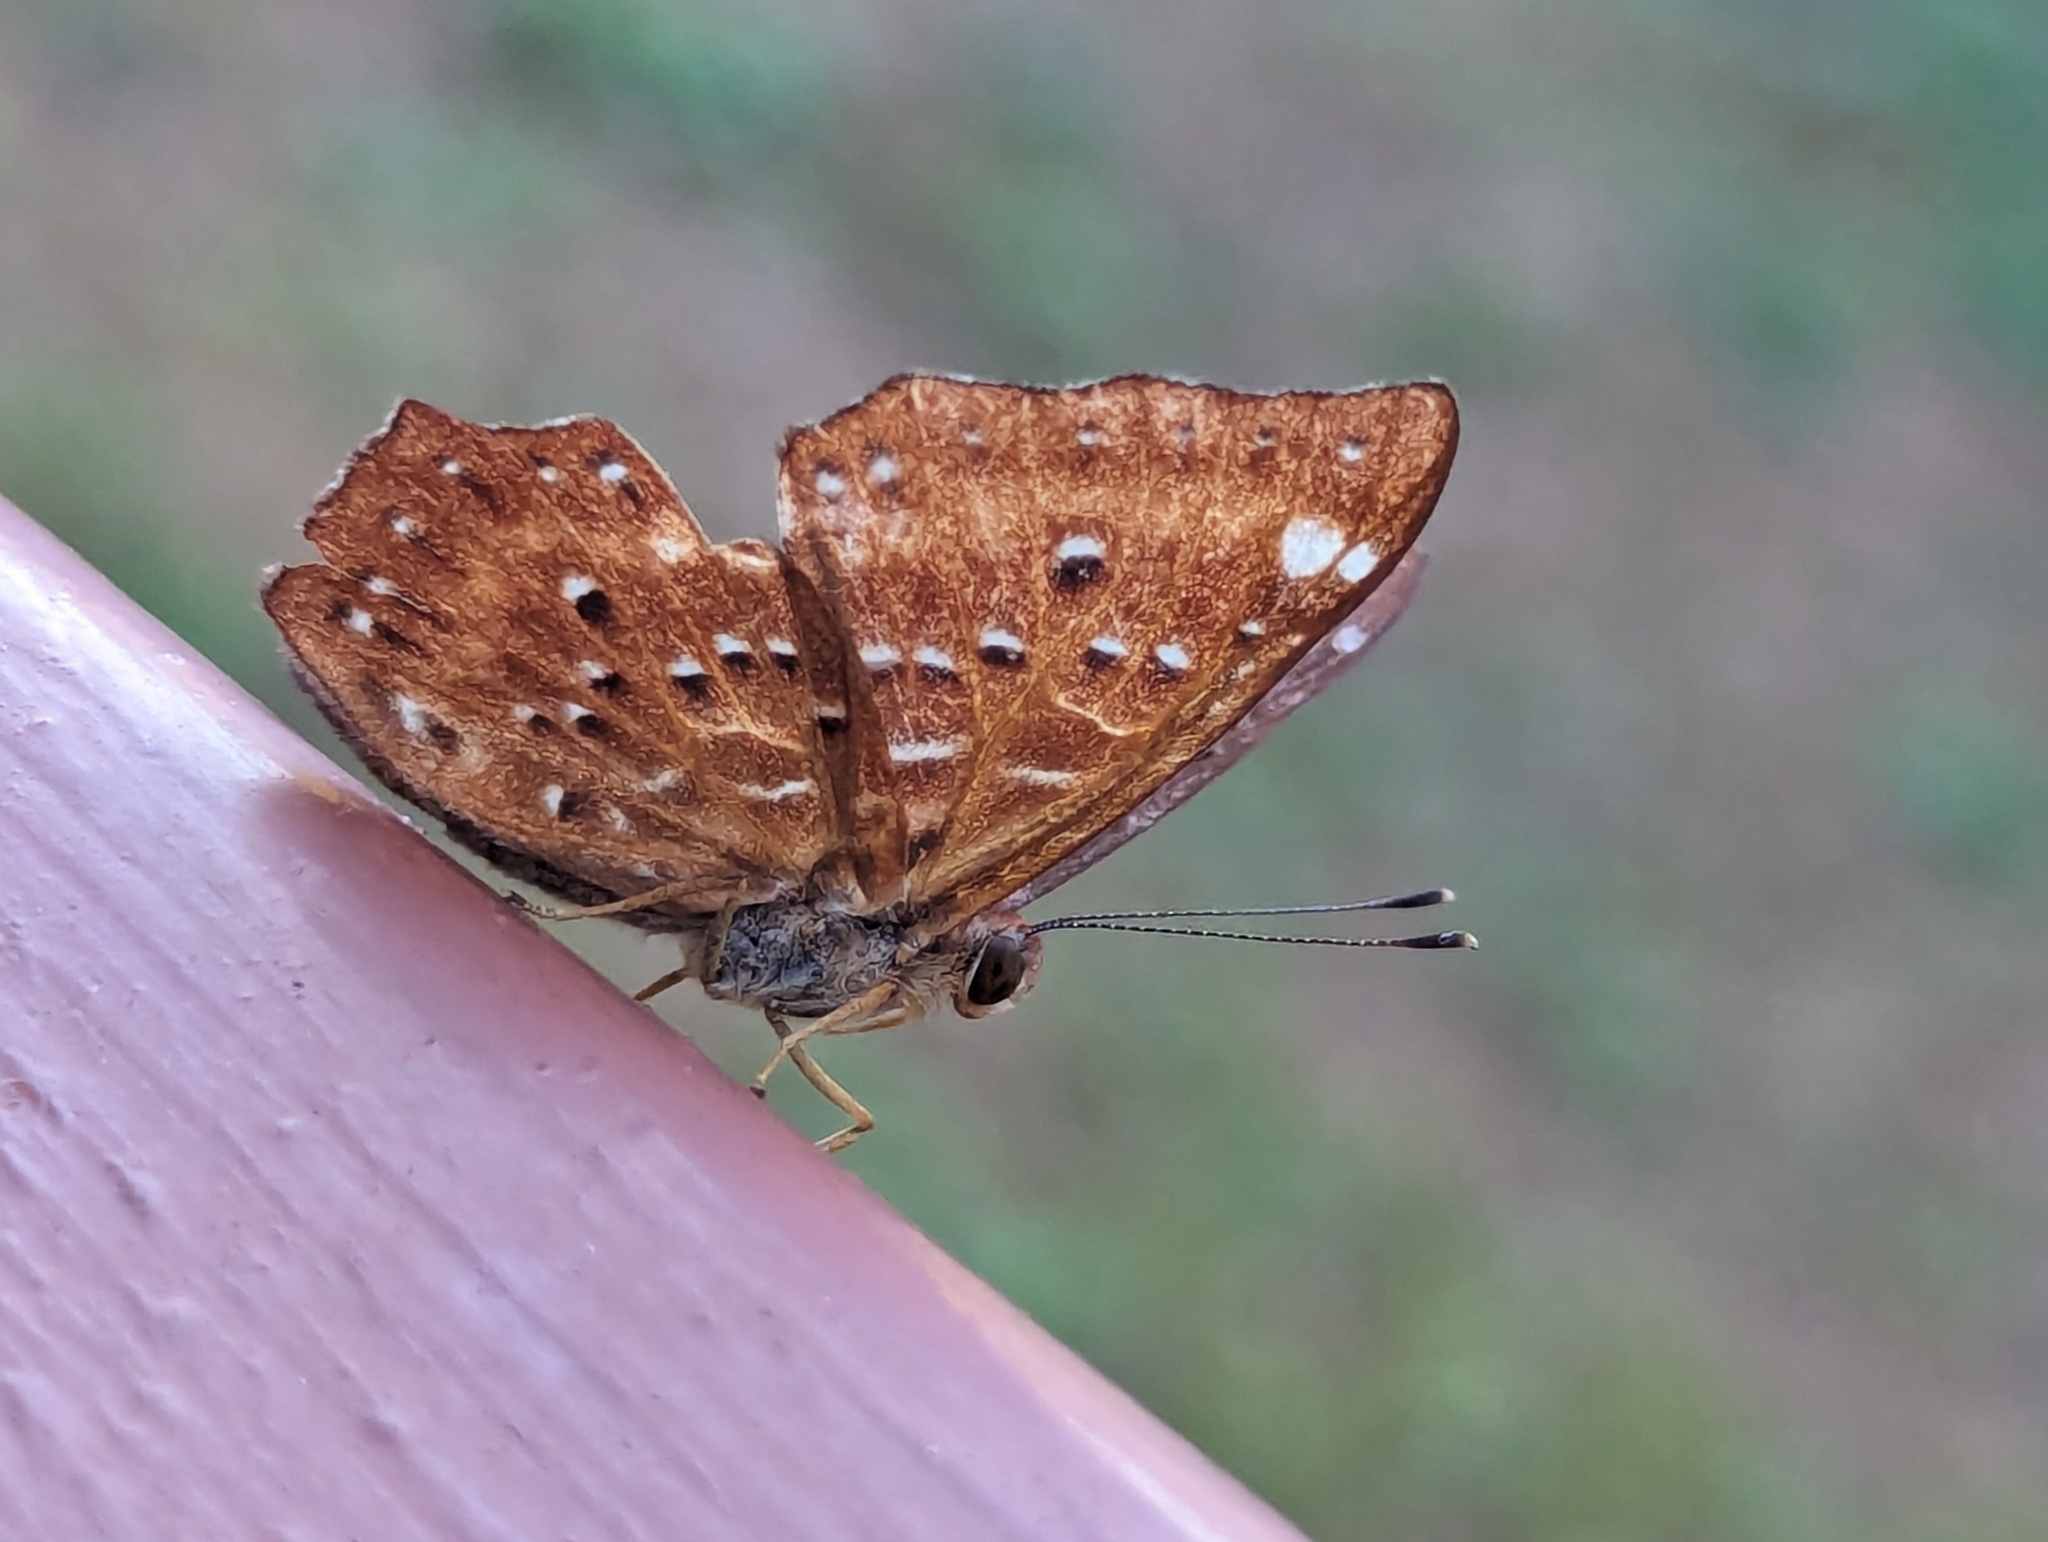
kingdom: Animalia
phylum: Arthropoda
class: Insecta
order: Lepidoptera
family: Riodinidae
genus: Zemeros
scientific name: Zemeros flegyas
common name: Punchinello
